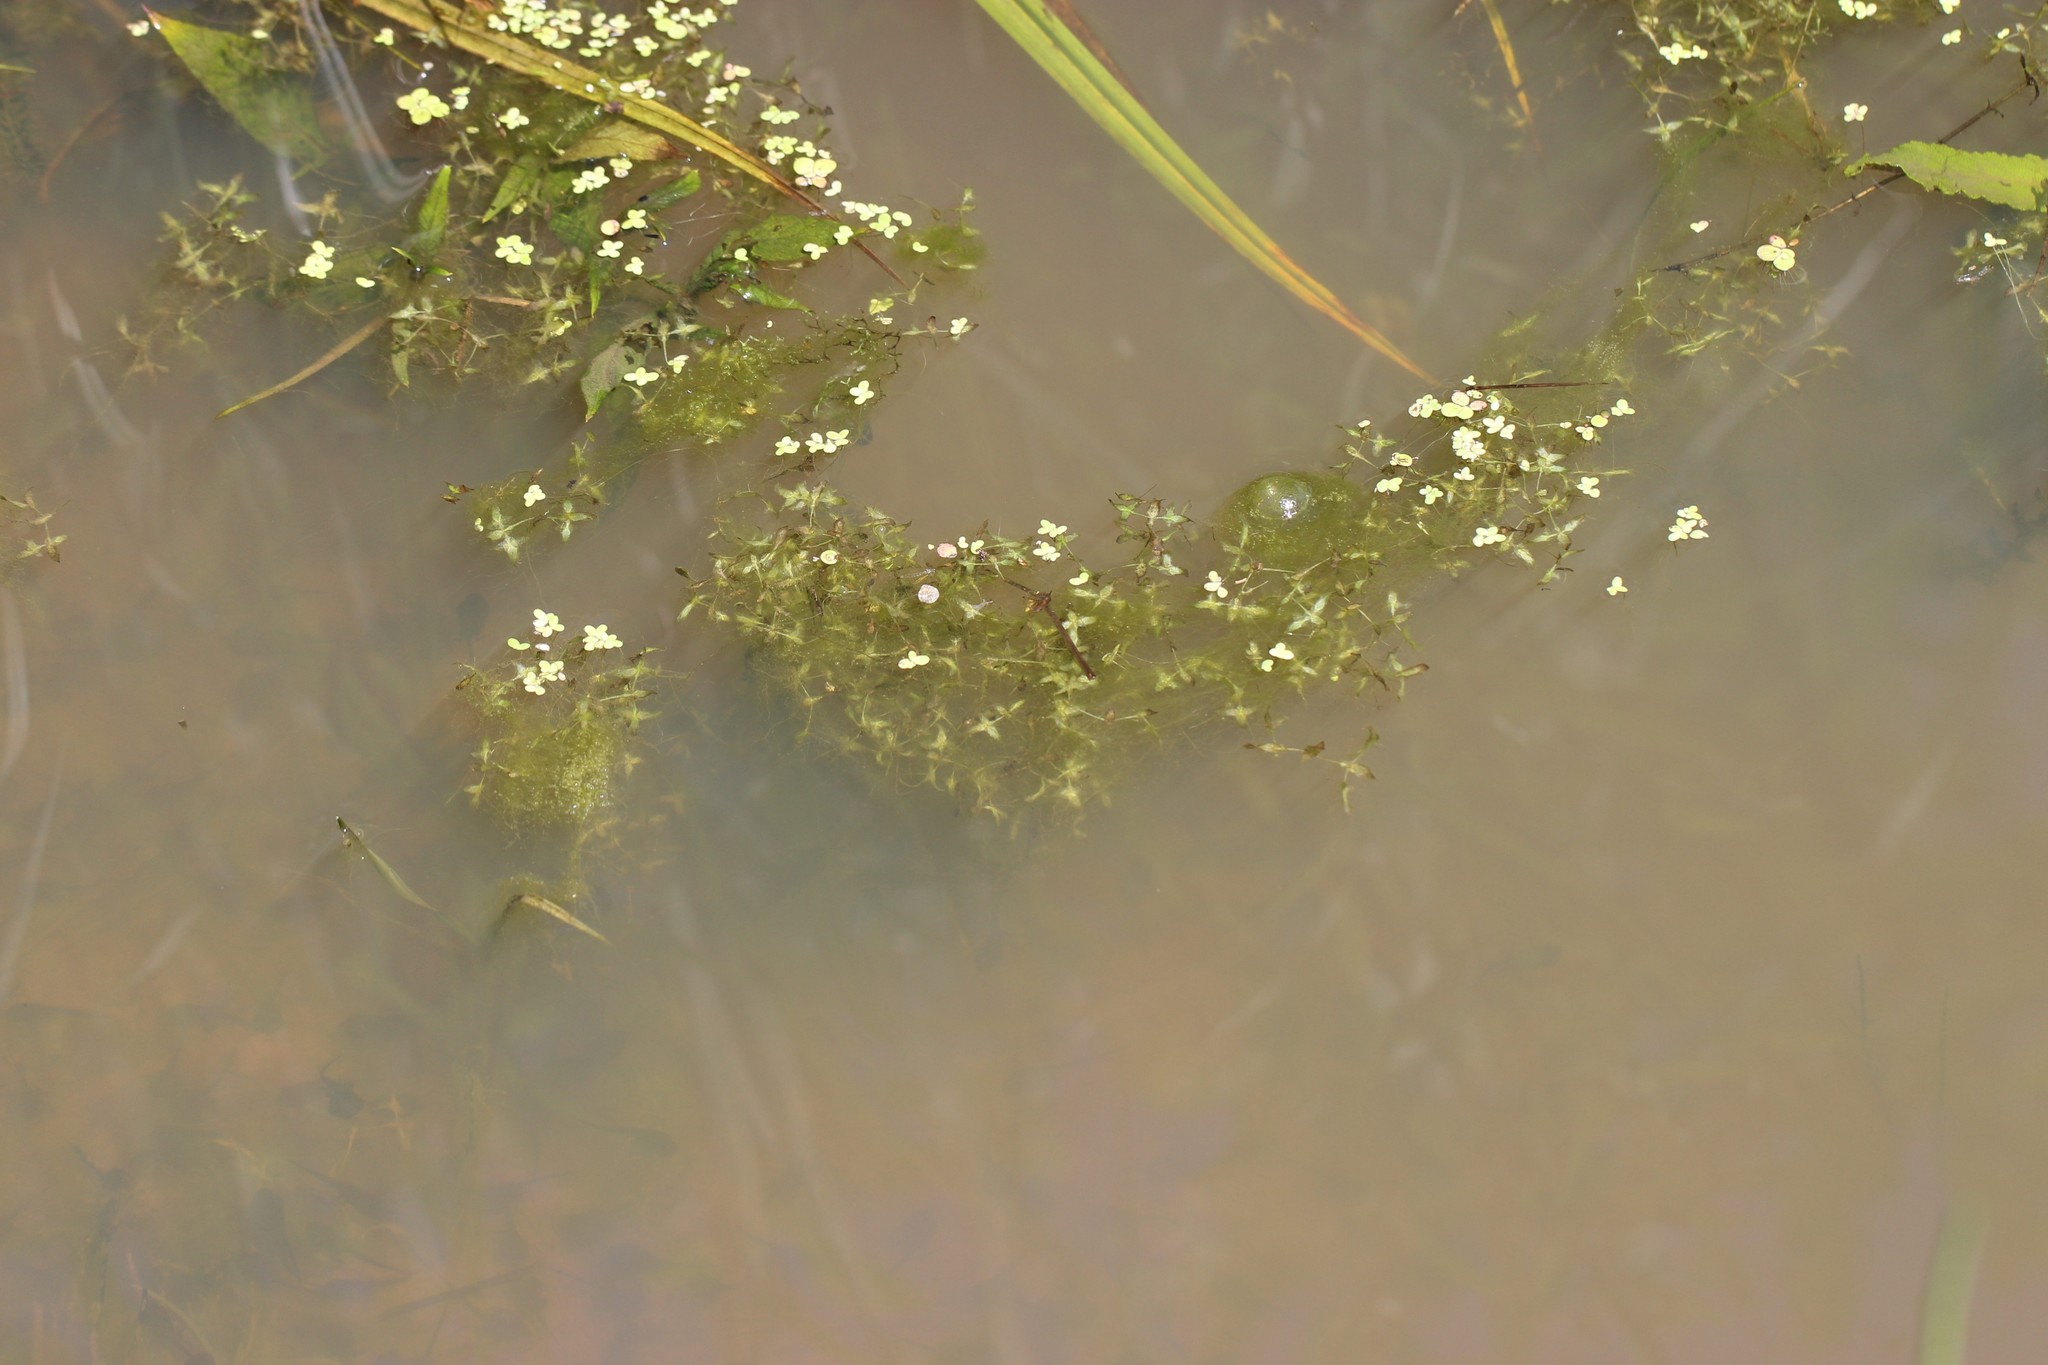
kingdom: Plantae
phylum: Tracheophyta
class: Liliopsida
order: Alismatales
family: Araceae
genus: Lemna
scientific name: Lemna trisulca
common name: Ivy-leaved duckweed
